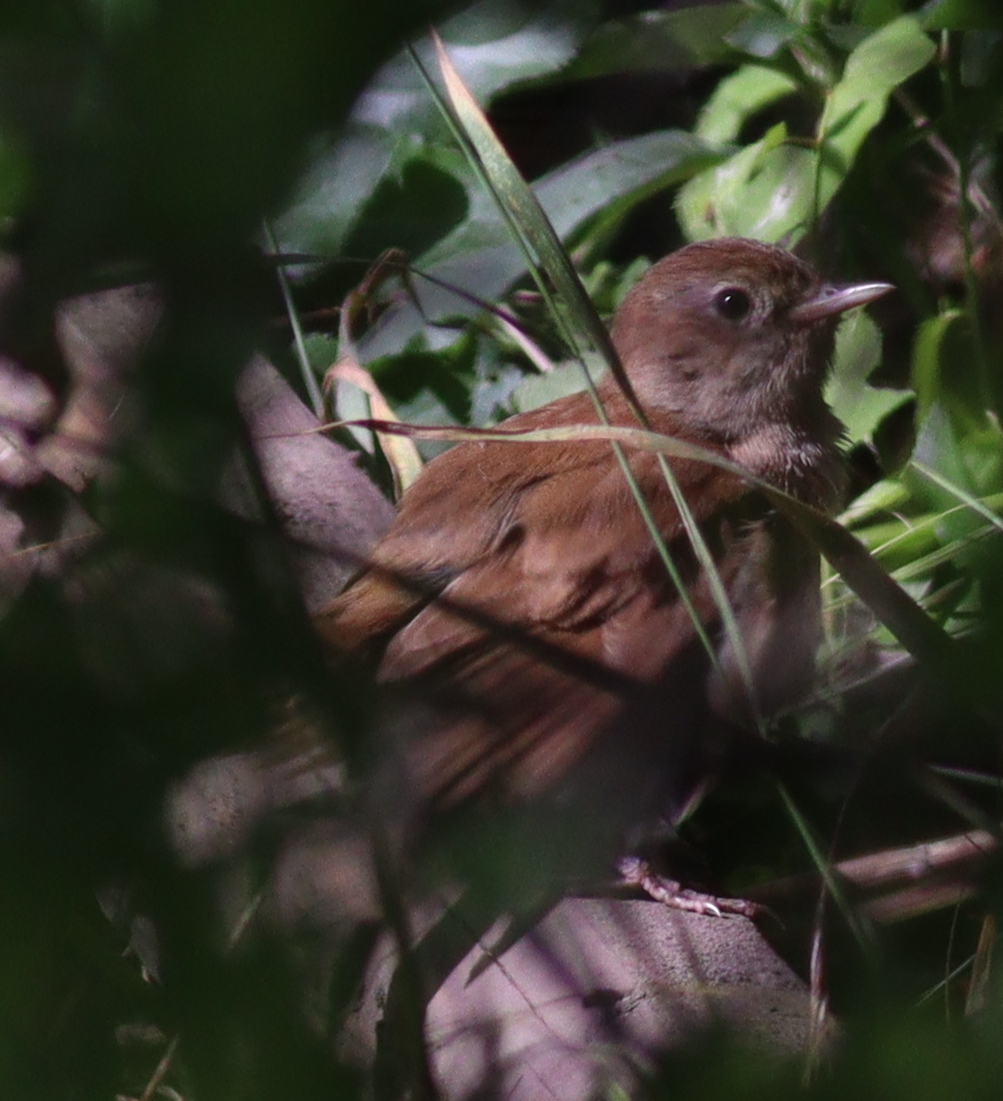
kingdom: Animalia
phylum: Chordata
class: Aves
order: Passeriformes
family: Muscicapidae
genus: Luscinia
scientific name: Luscinia megarhynchos
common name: Common nightingale
